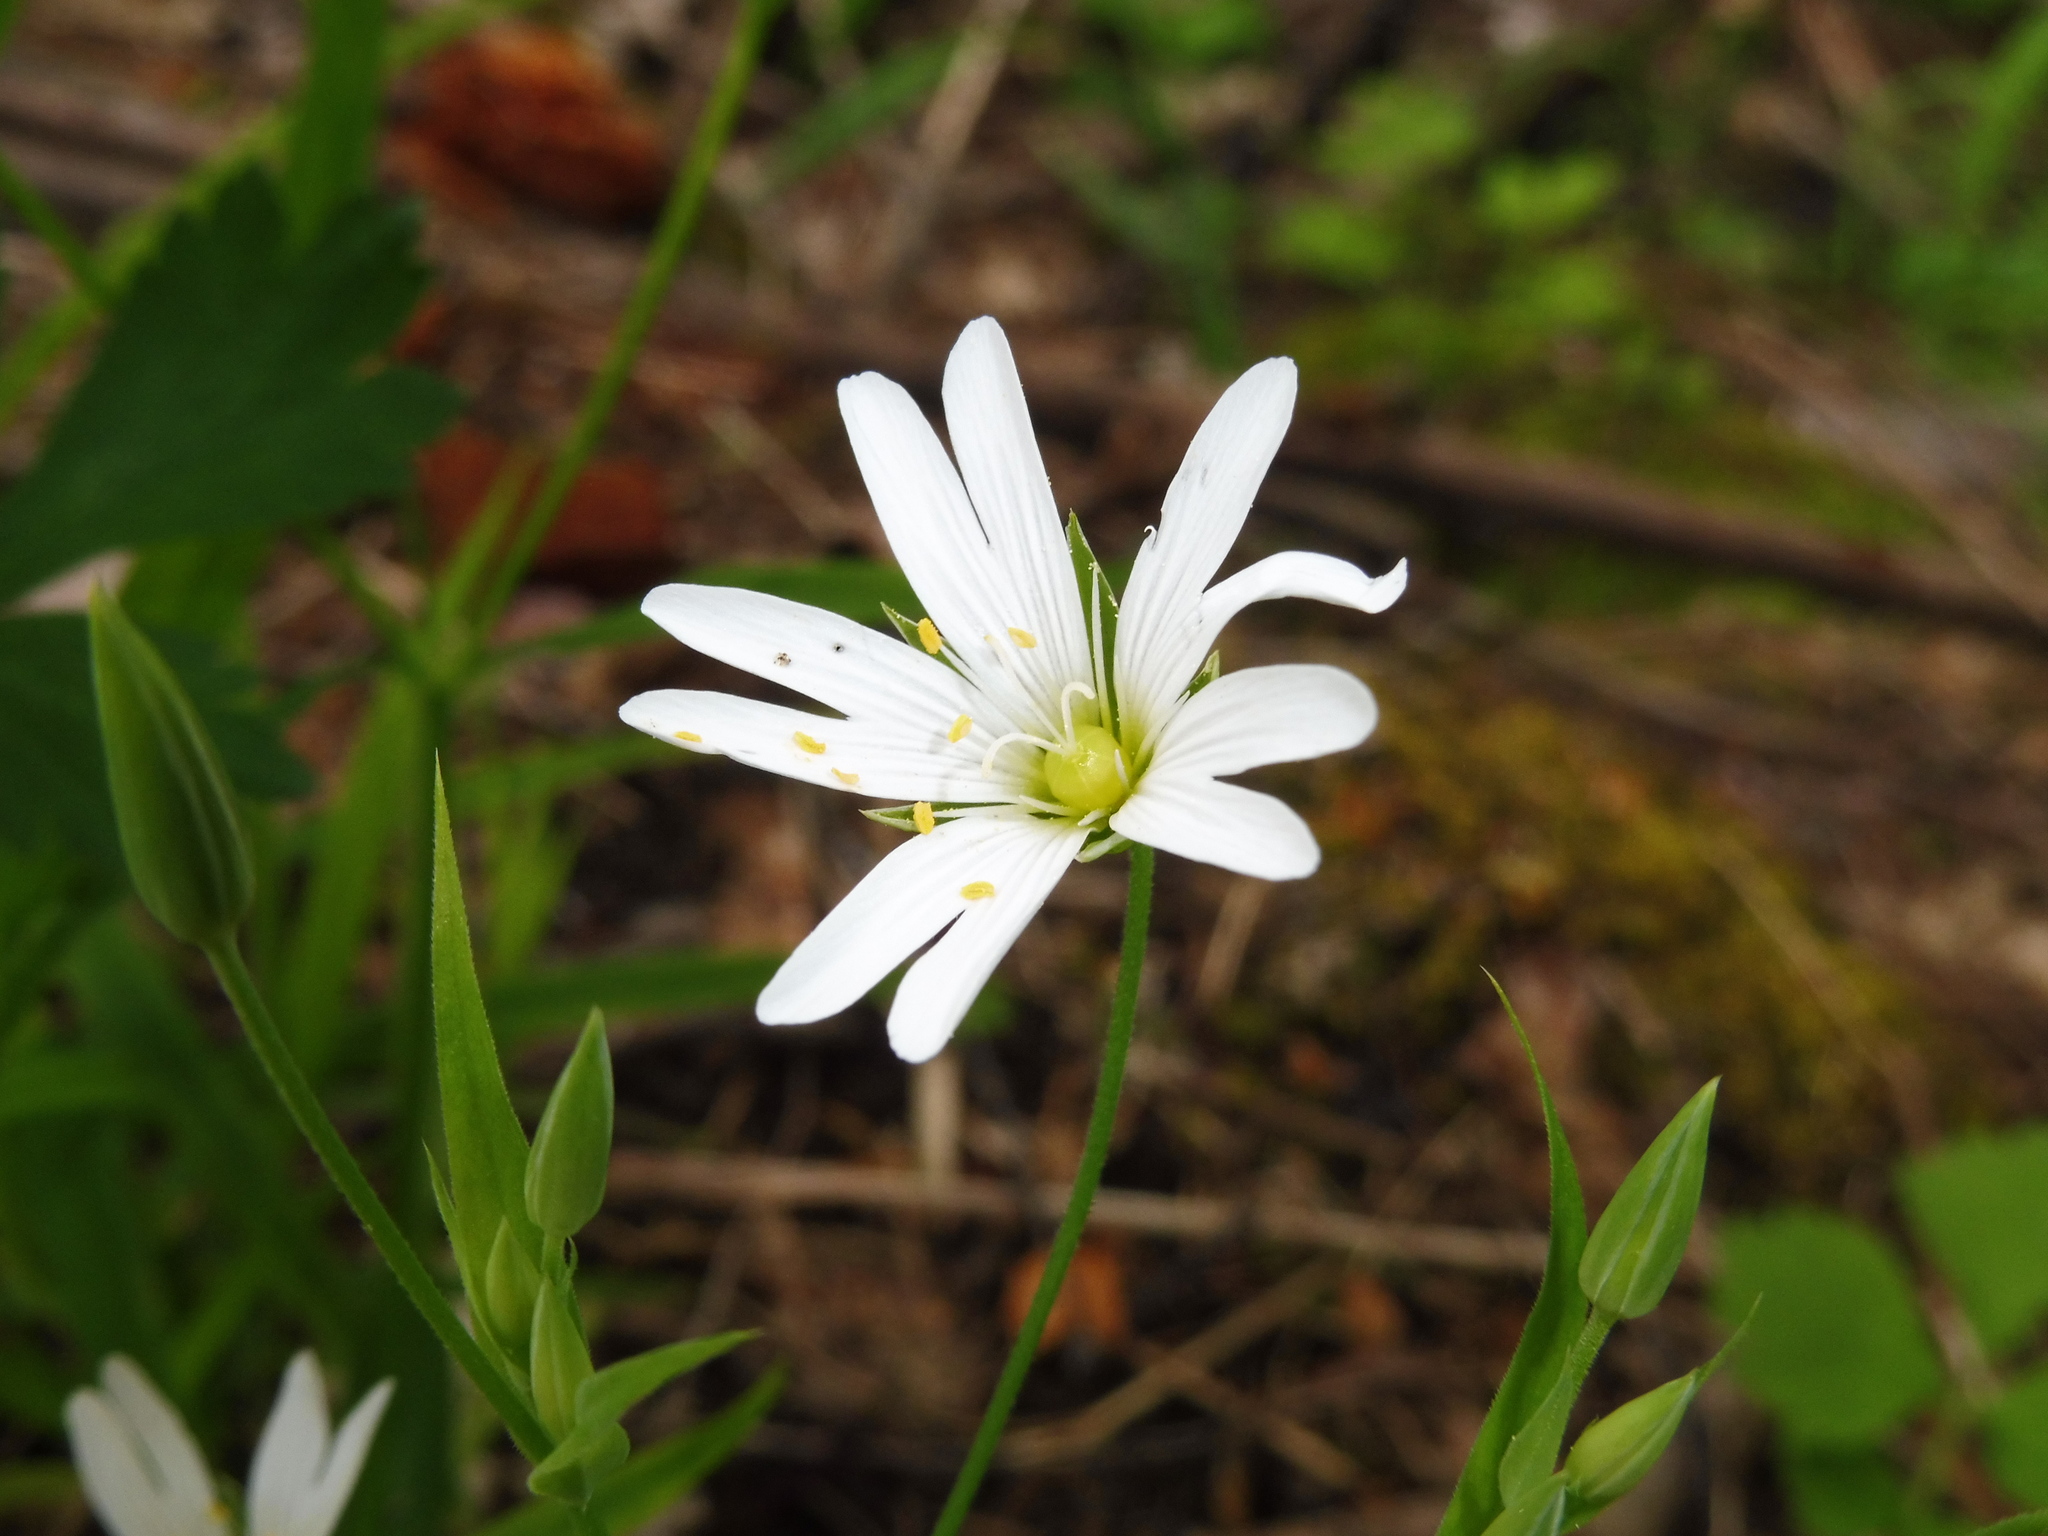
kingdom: Plantae
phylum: Tracheophyta
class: Magnoliopsida
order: Caryophyllales
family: Caryophyllaceae
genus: Rabelera
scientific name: Rabelera holostea
